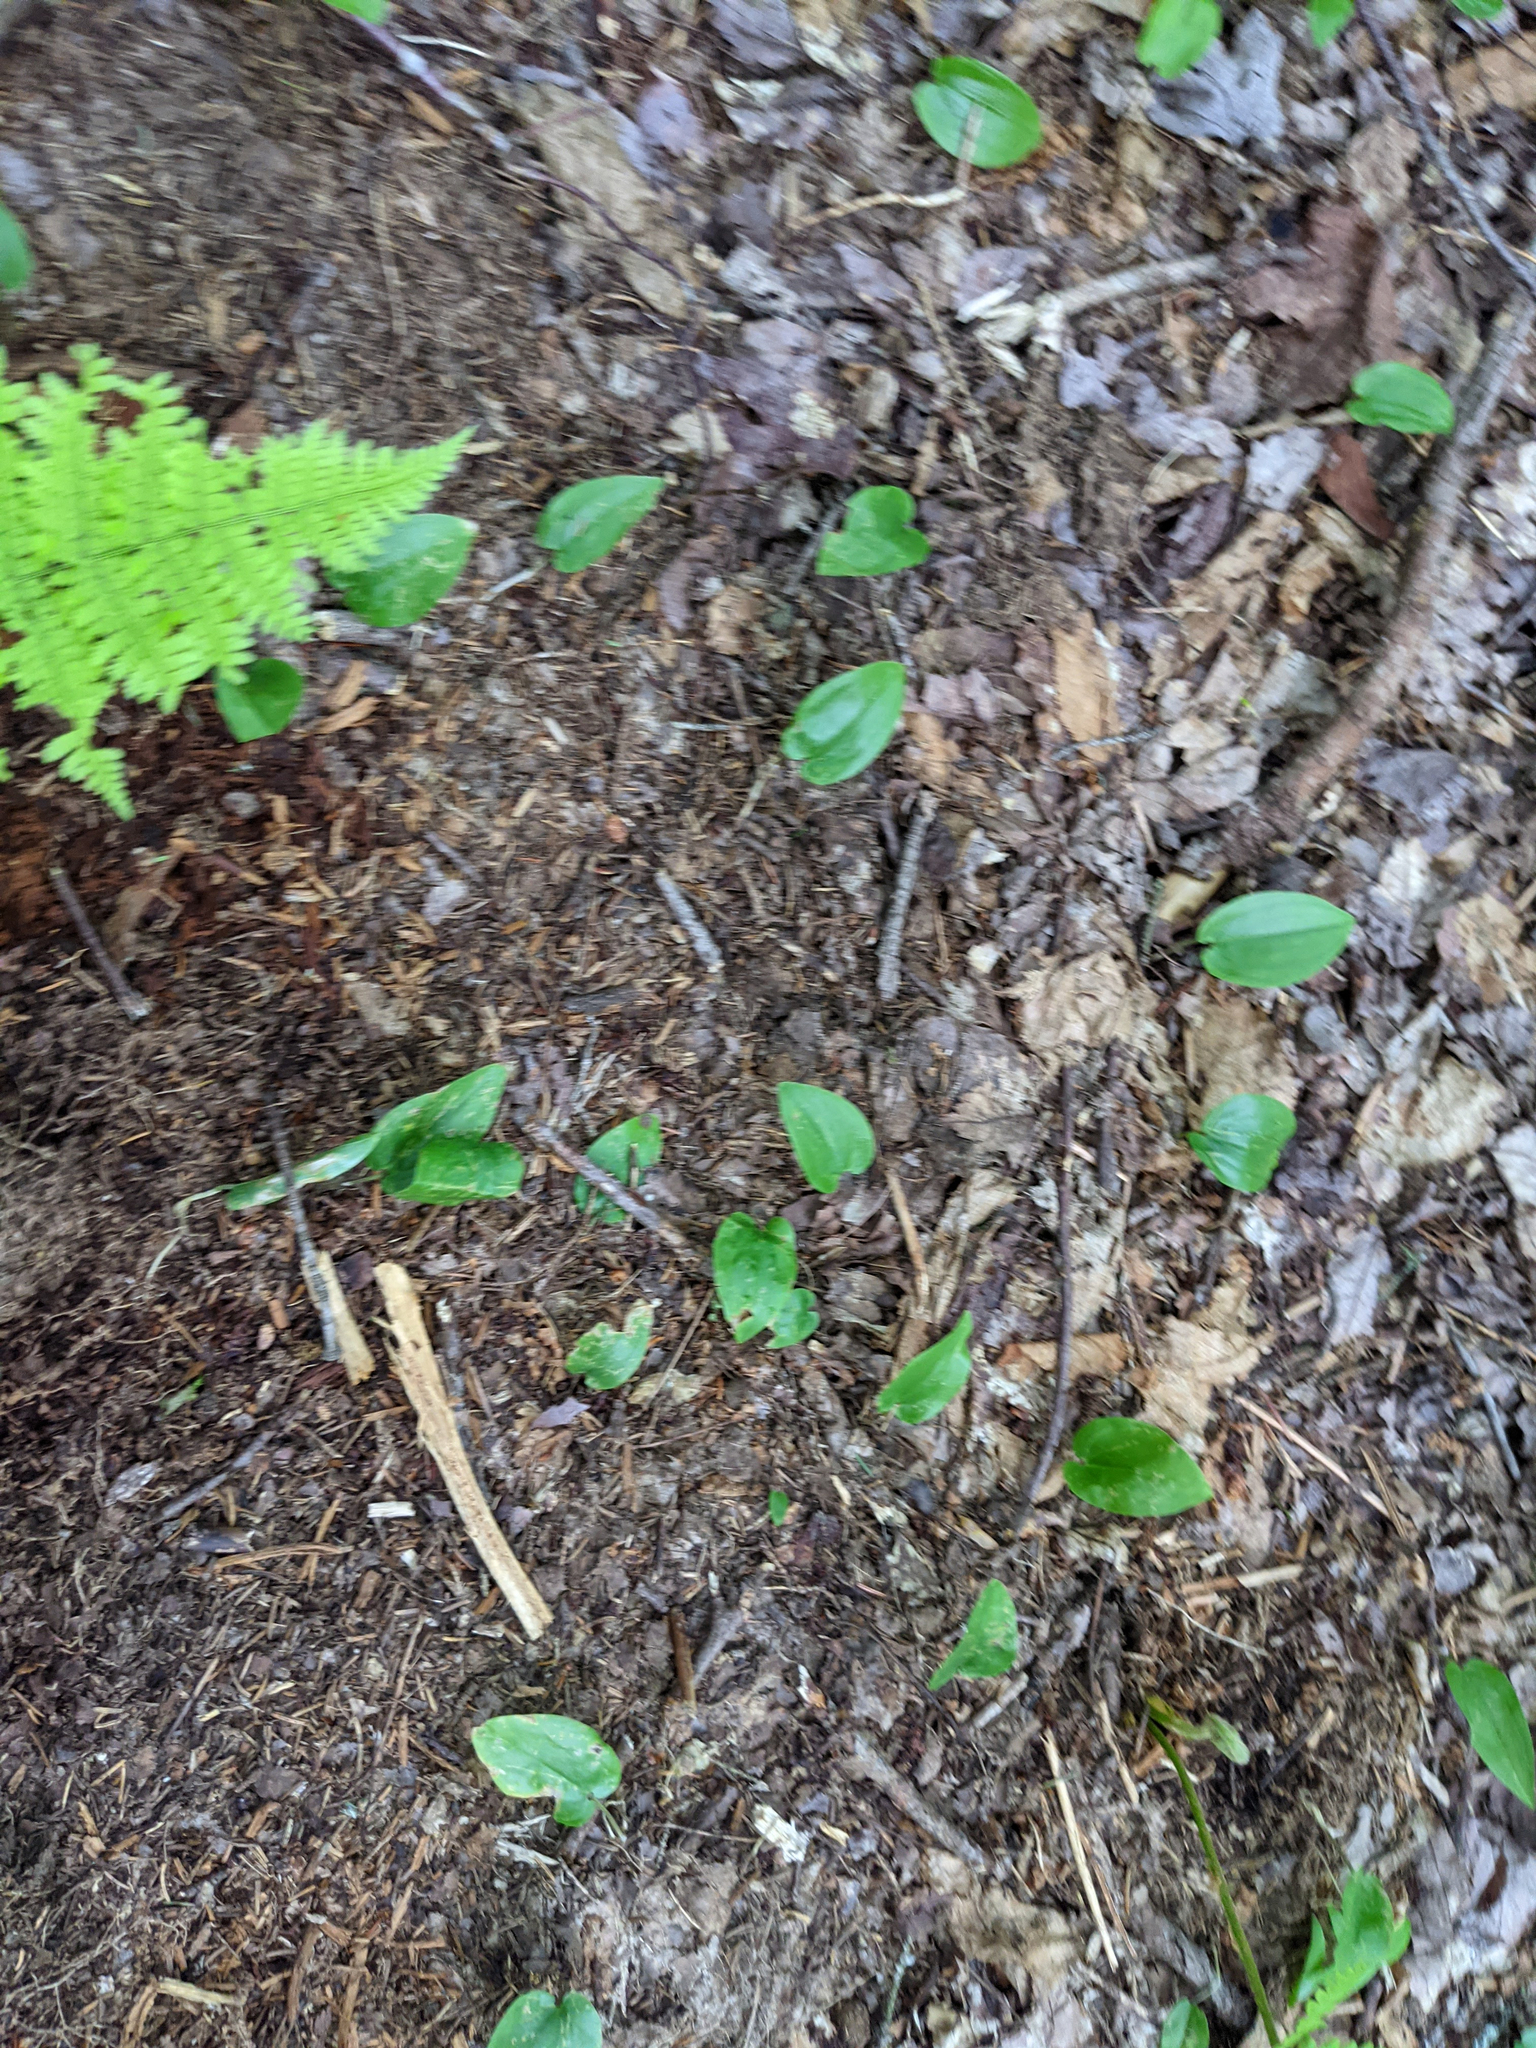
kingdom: Plantae
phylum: Tracheophyta
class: Liliopsida
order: Asparagales
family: Asparagaceae
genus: Maianthemum
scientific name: Maianthemum canadense
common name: False lily-of-the-valley
